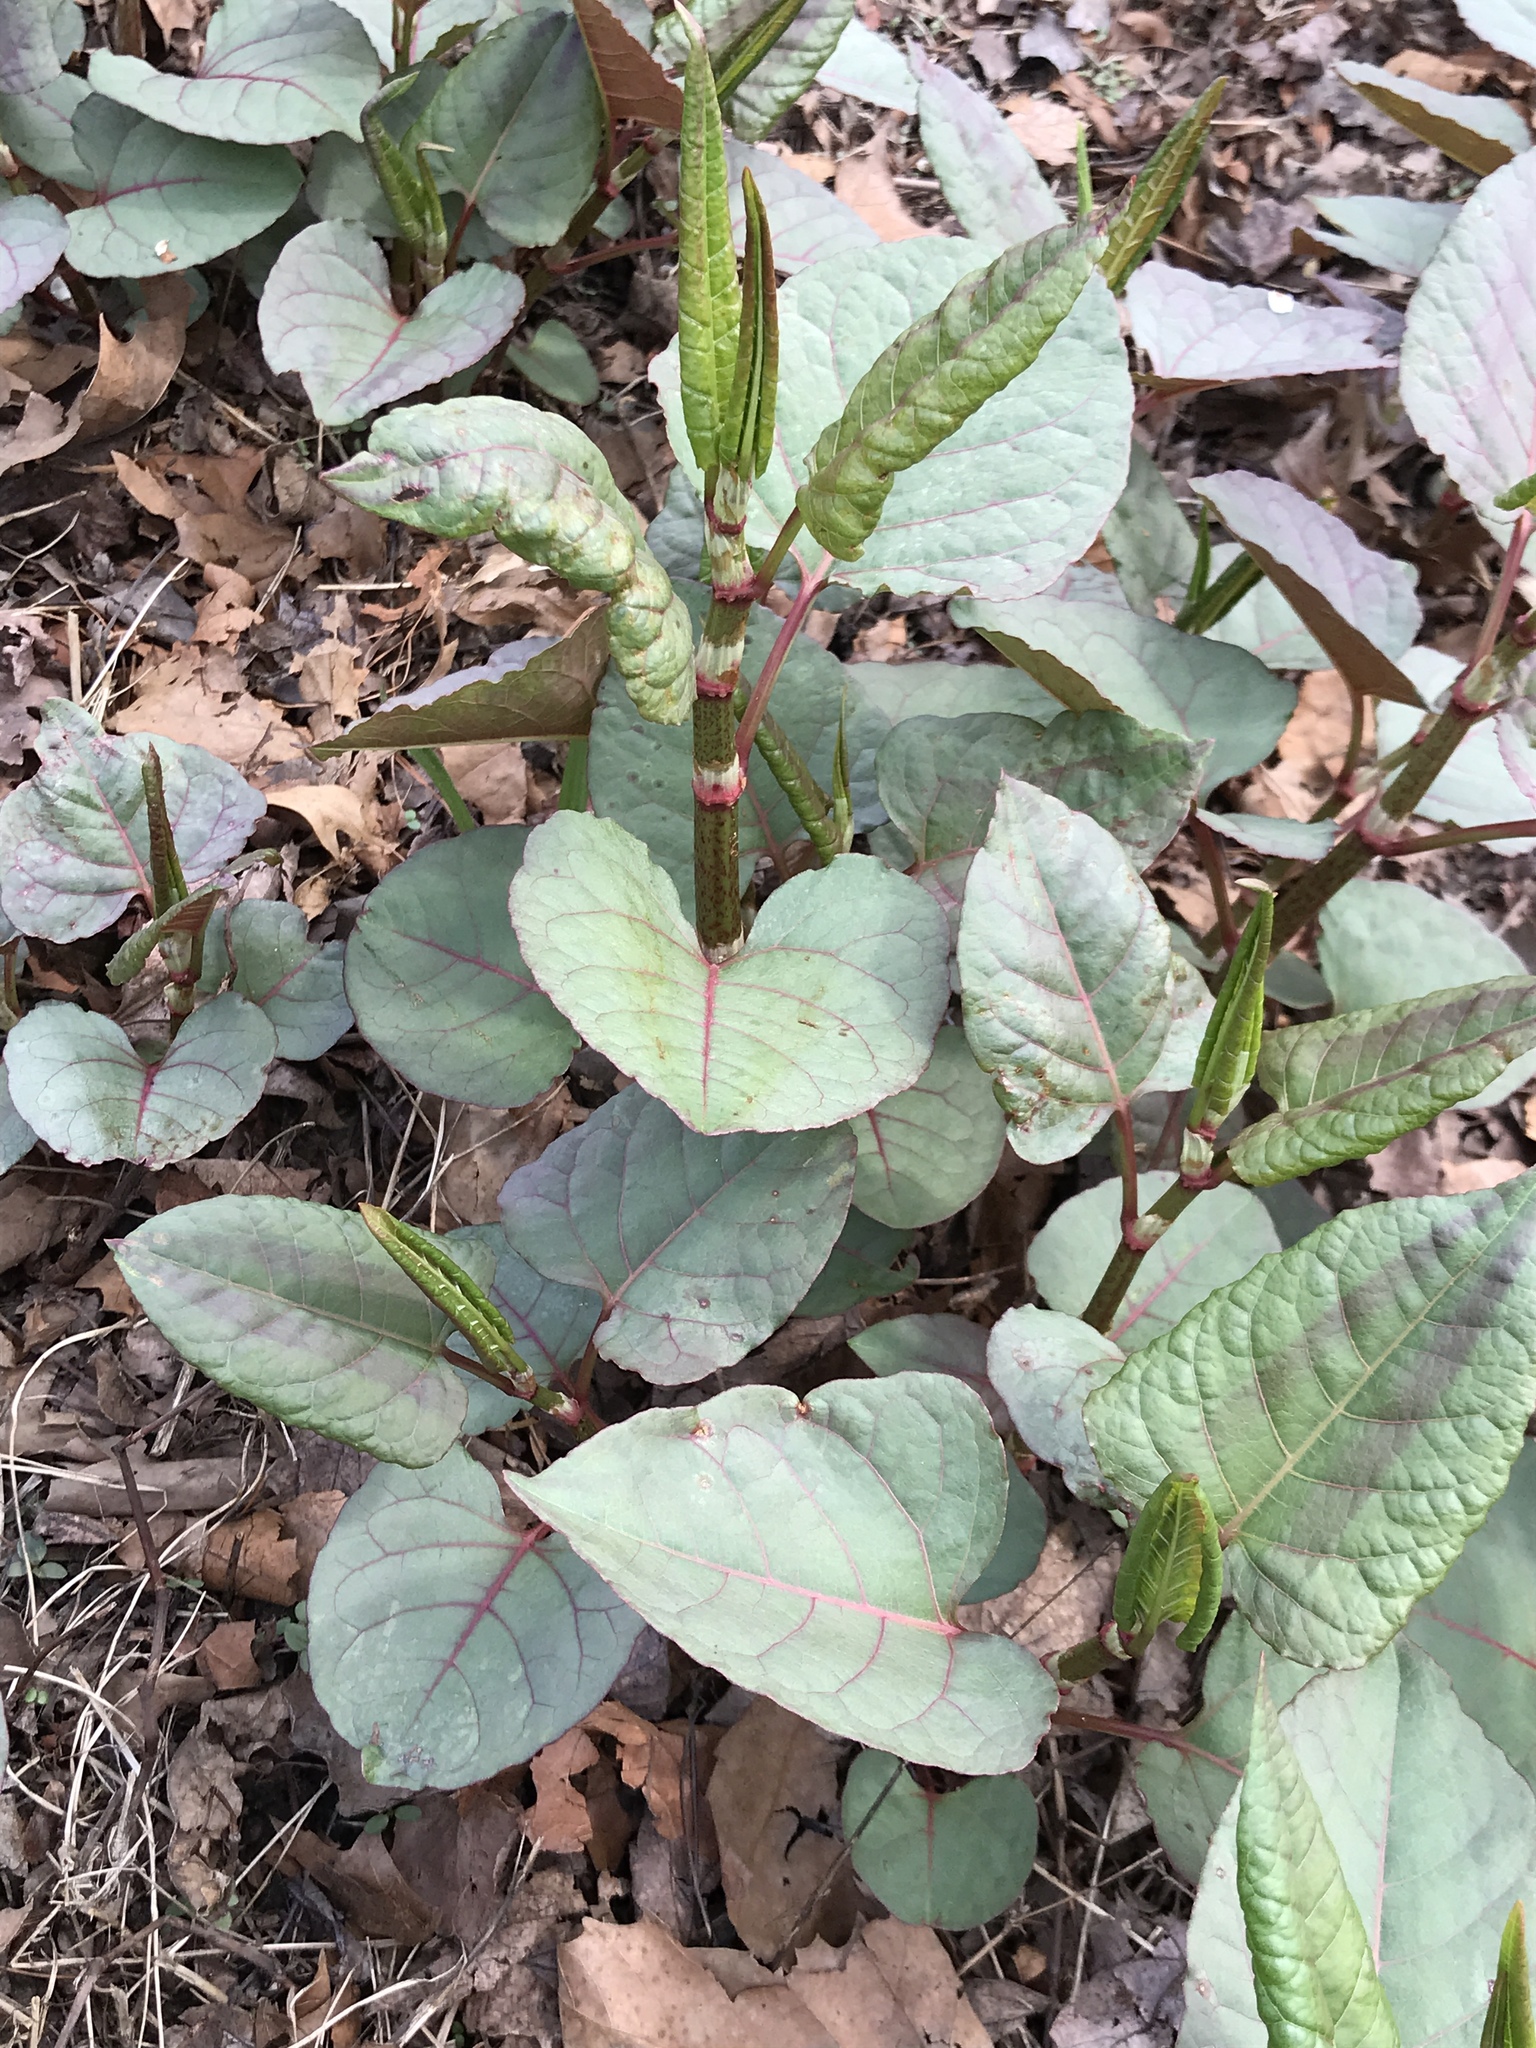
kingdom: Plantae
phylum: Tracheophyta
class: Magnoliopsida
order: Caryophyllales
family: Polygonaceae
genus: Reynoutria
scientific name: Reynoutria japonica
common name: Japanese knotweed
